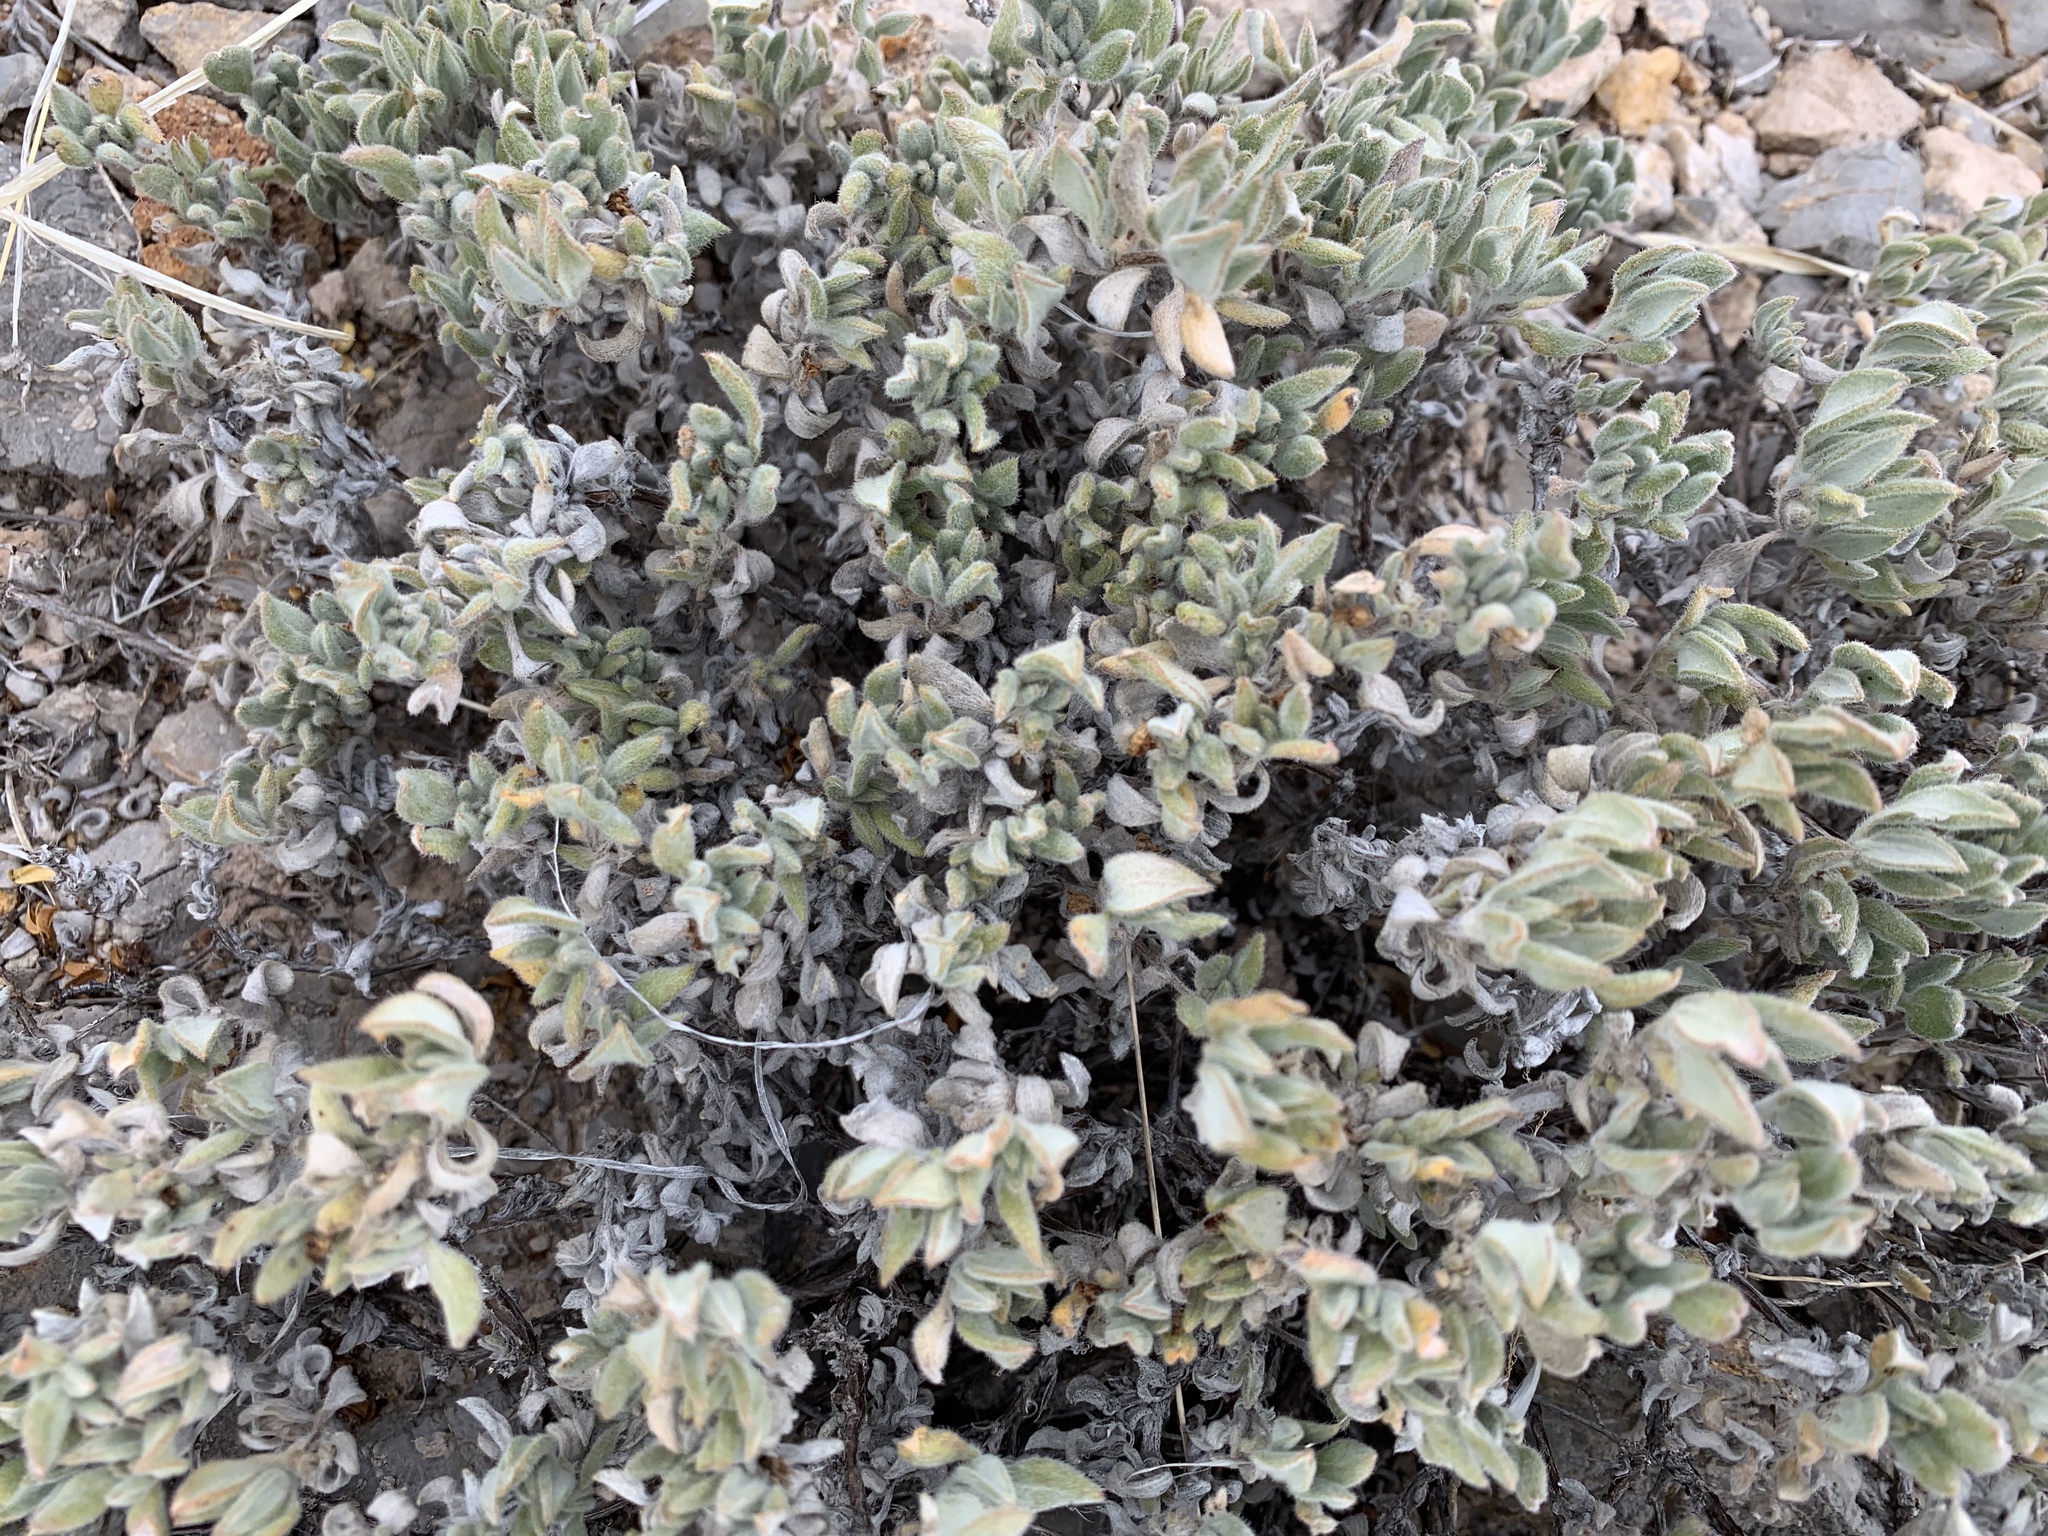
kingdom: Plantae
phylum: Tracheophyta
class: Magnoliopsida
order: Boraginales
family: Ehretiaceae
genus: Tiquilia
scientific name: Tiquilia canescens
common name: Hairy tiquilia
